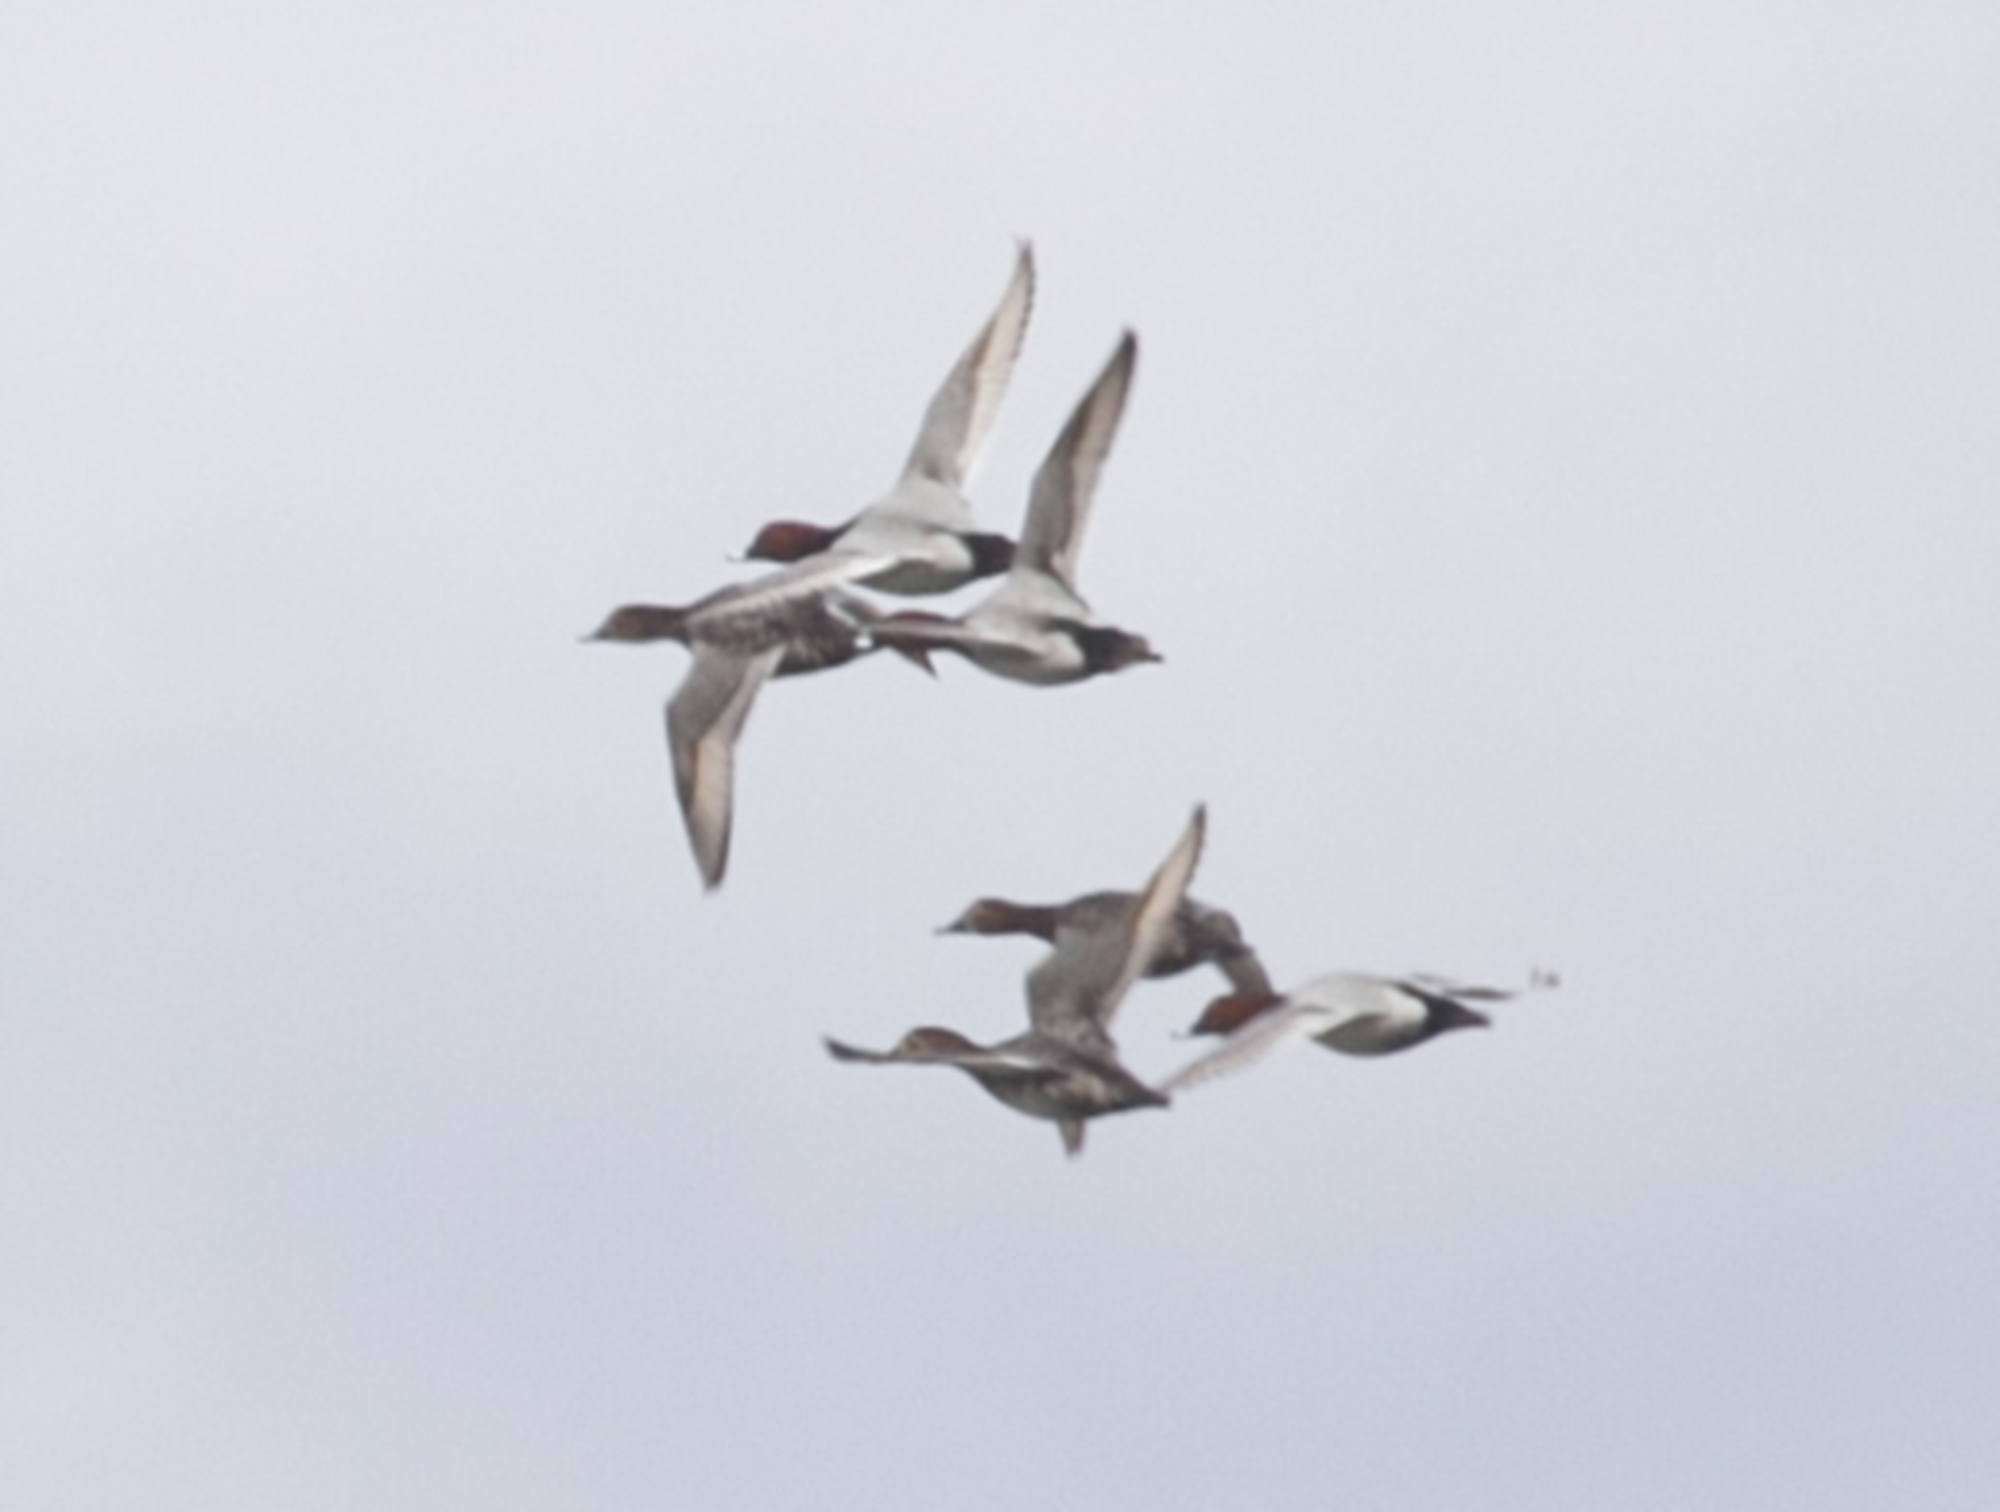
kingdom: Animalia
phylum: Chordata
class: Aves
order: Anseriformes
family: Anatidae
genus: Aythya
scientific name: Aythya ferina
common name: Common pochard
